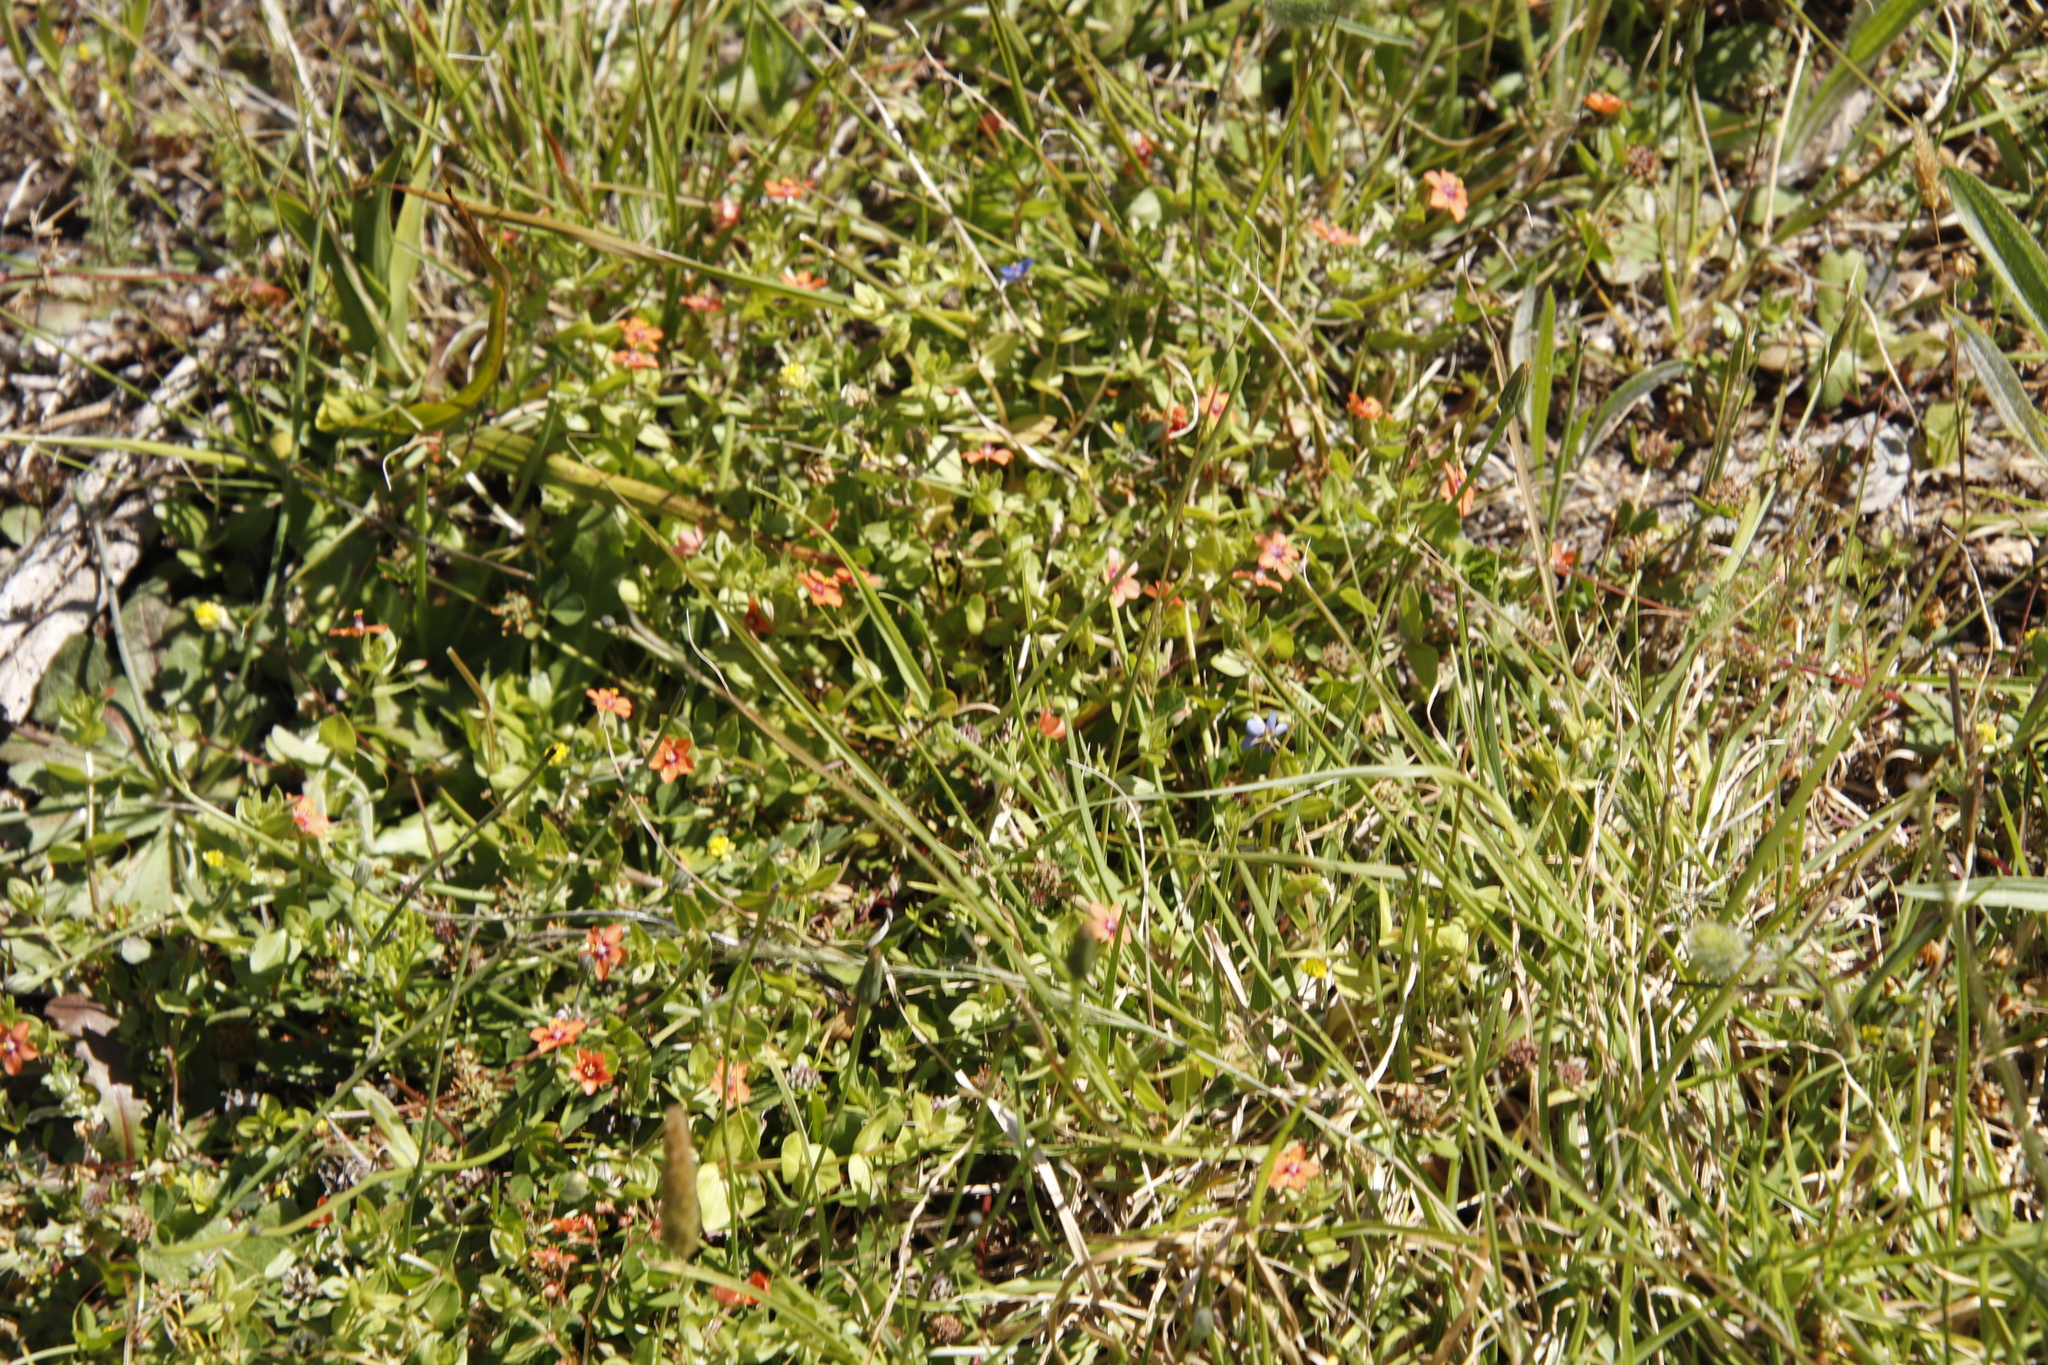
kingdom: Plantae
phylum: Tracheophyta
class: Magnoliopsida
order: Ericales
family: Primulaceae
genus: Lysimachia
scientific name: Lysimachia arvensis
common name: Scarlet pimpernel
